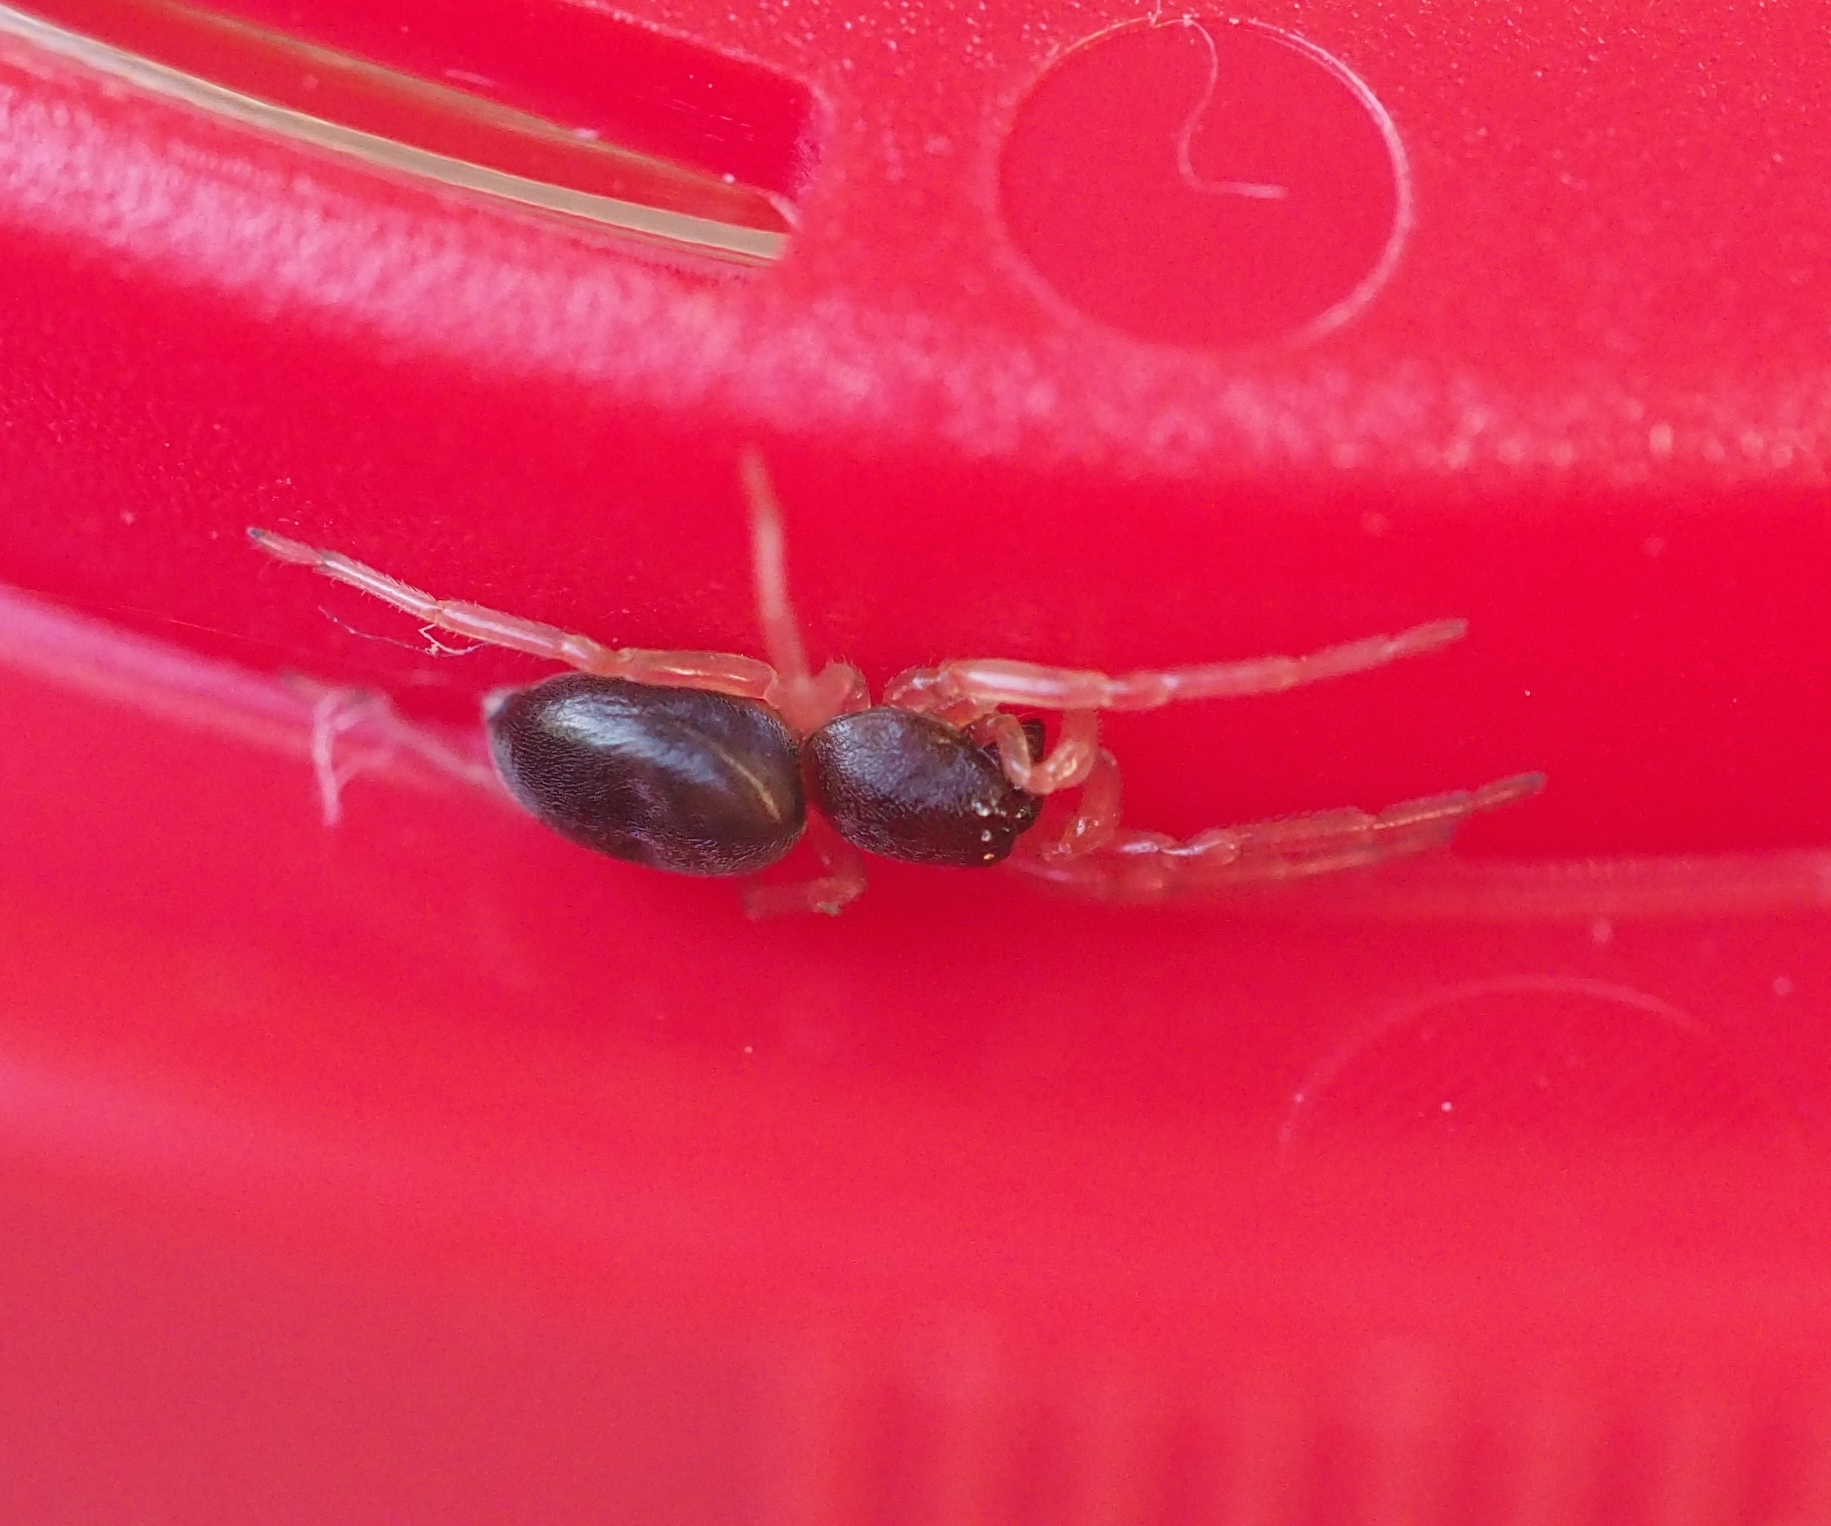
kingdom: Animalia
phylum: Arthropoda
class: Arachnida
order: Araneae
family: Trachelidae
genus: Cetonana
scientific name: Cetonana laticeps
